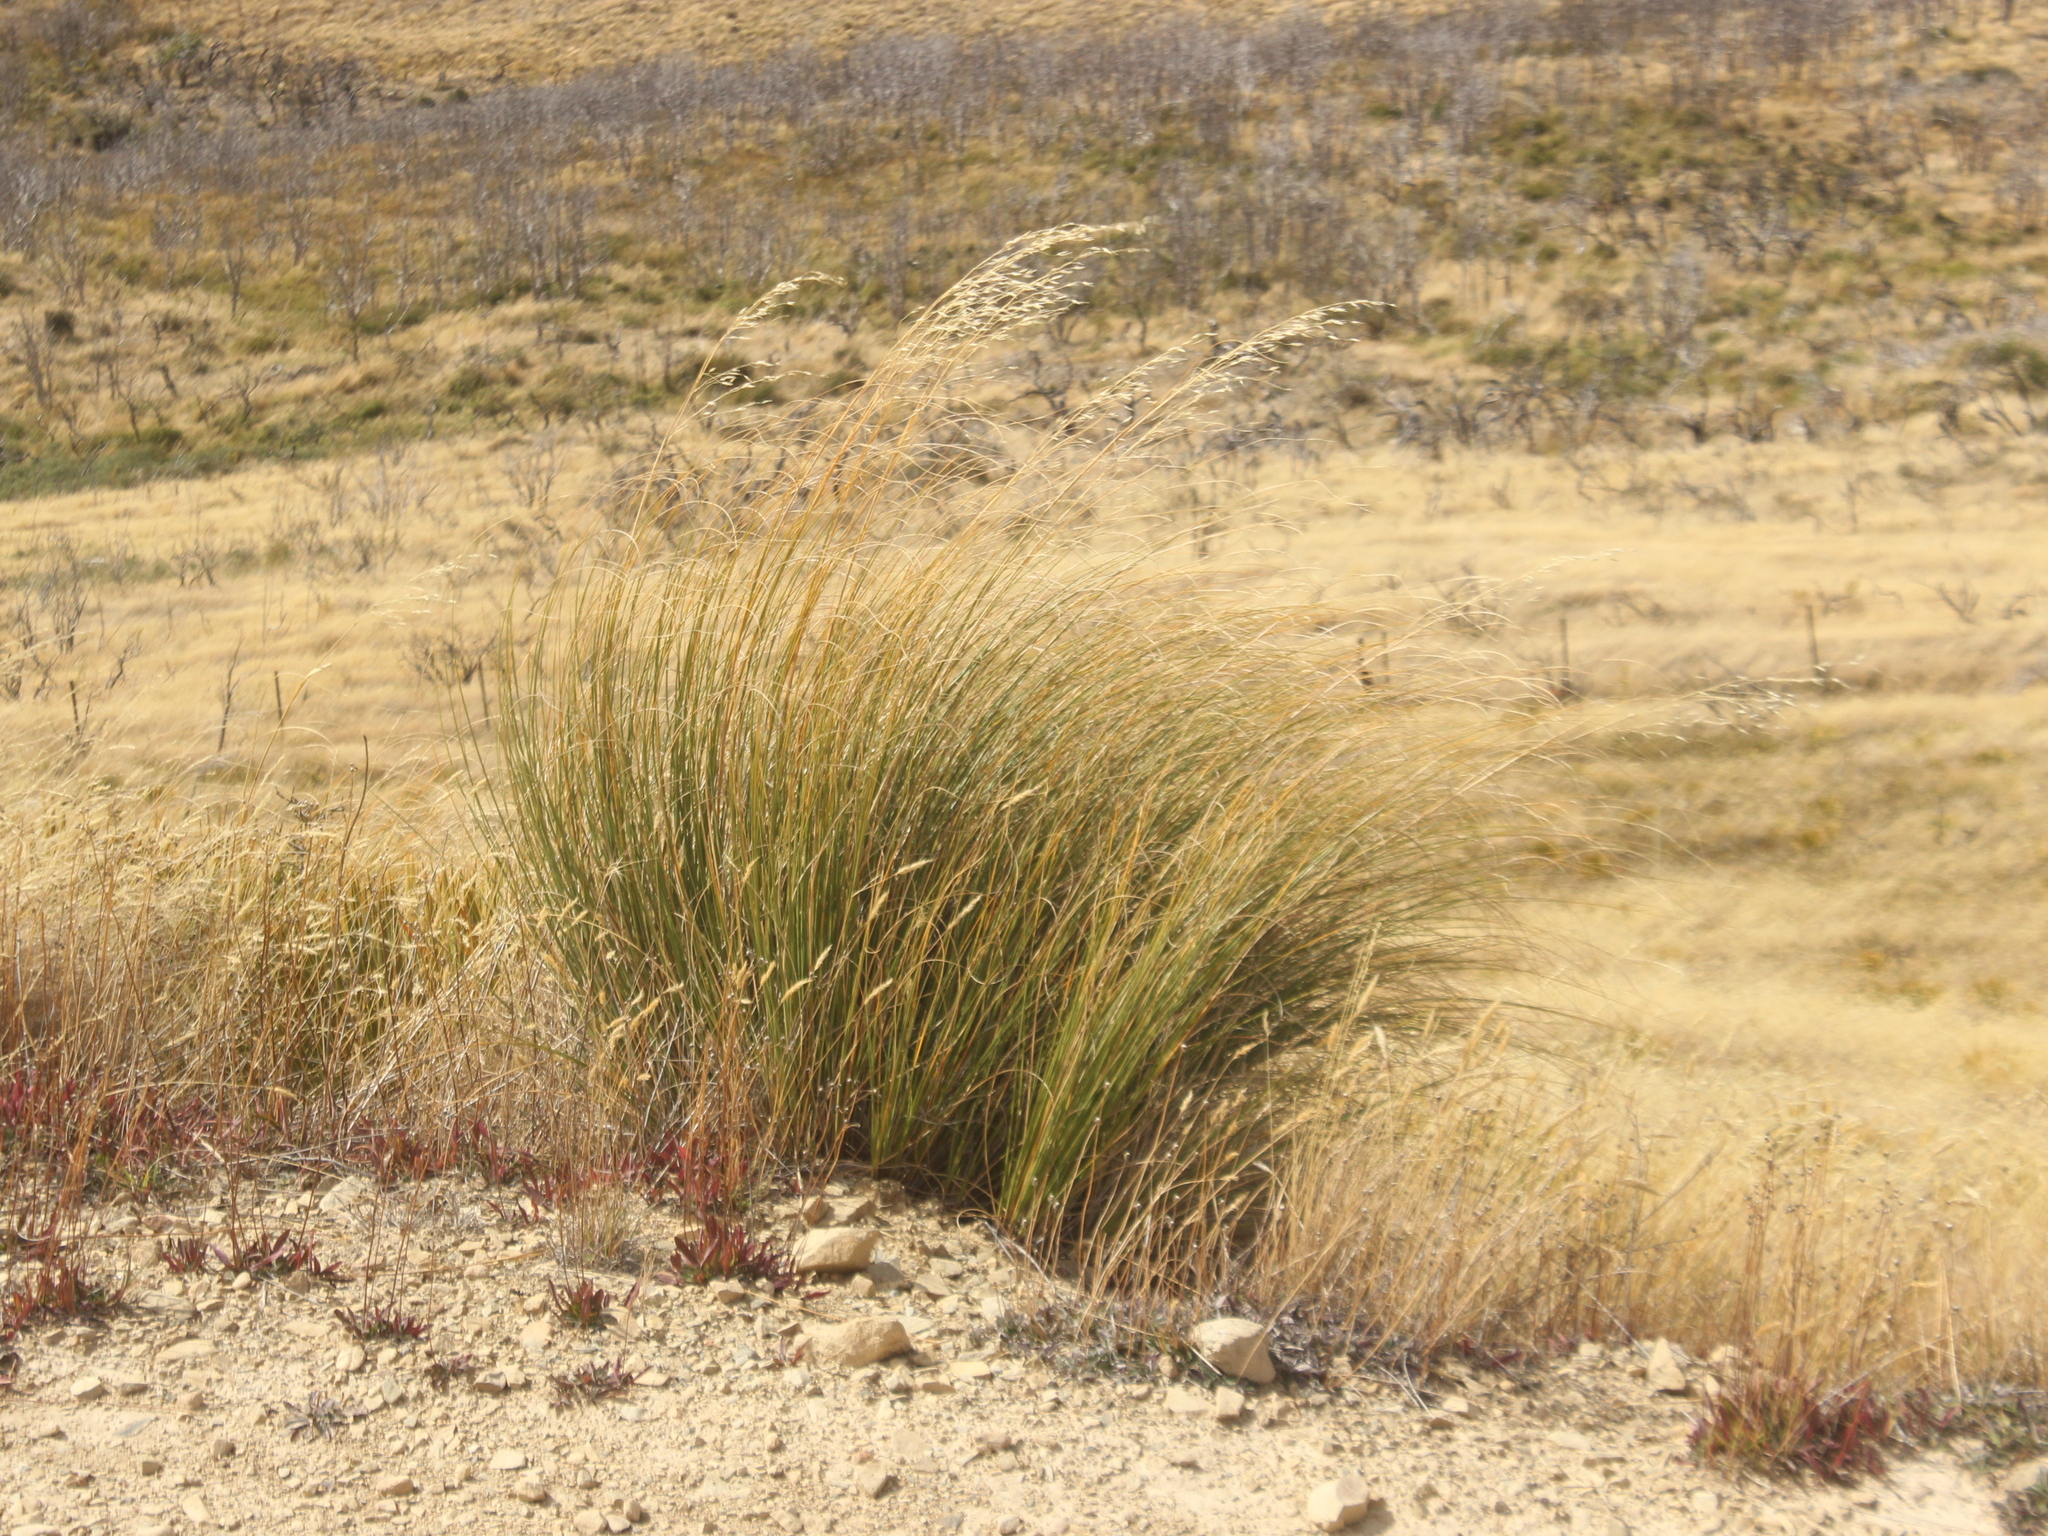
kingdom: Plantae
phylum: Tracheophyta
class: Liliopsida
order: Poales
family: Poaceae
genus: Chionochloa
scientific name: Chionochloa rigida
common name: Narrow leaved snow tussock
